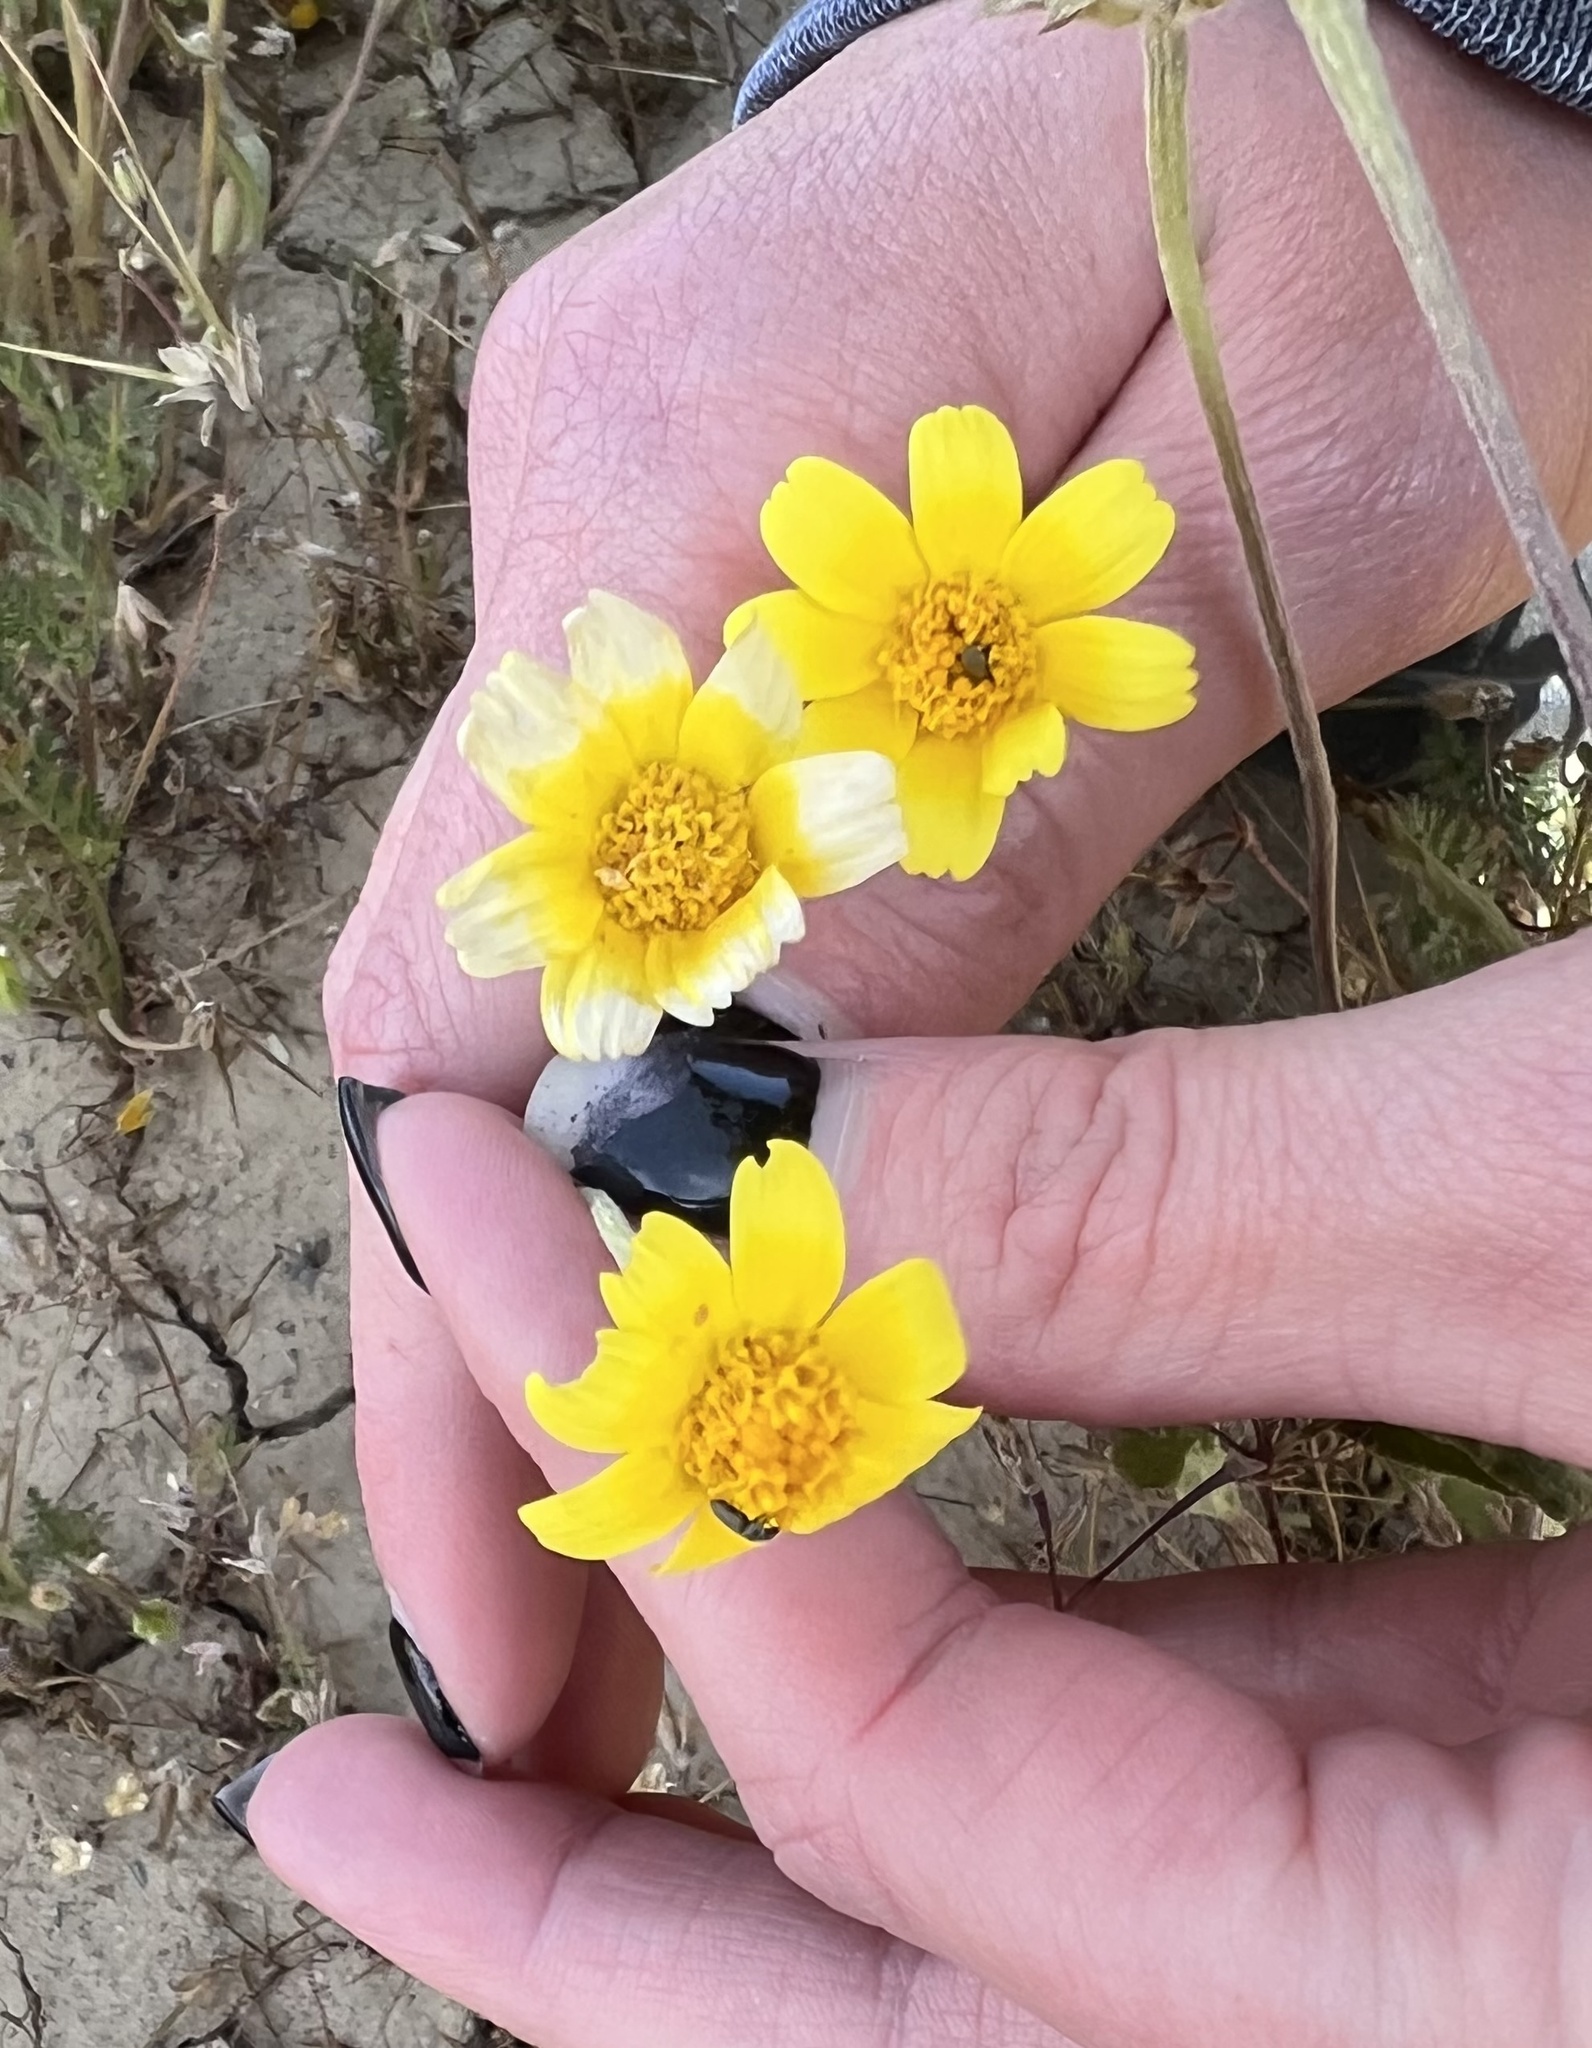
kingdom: Plantae
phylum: Tracheophyta
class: Magnoliopsida
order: Asterales
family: Asteraceae
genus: Monolopia
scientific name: Monolopia lanceolata
